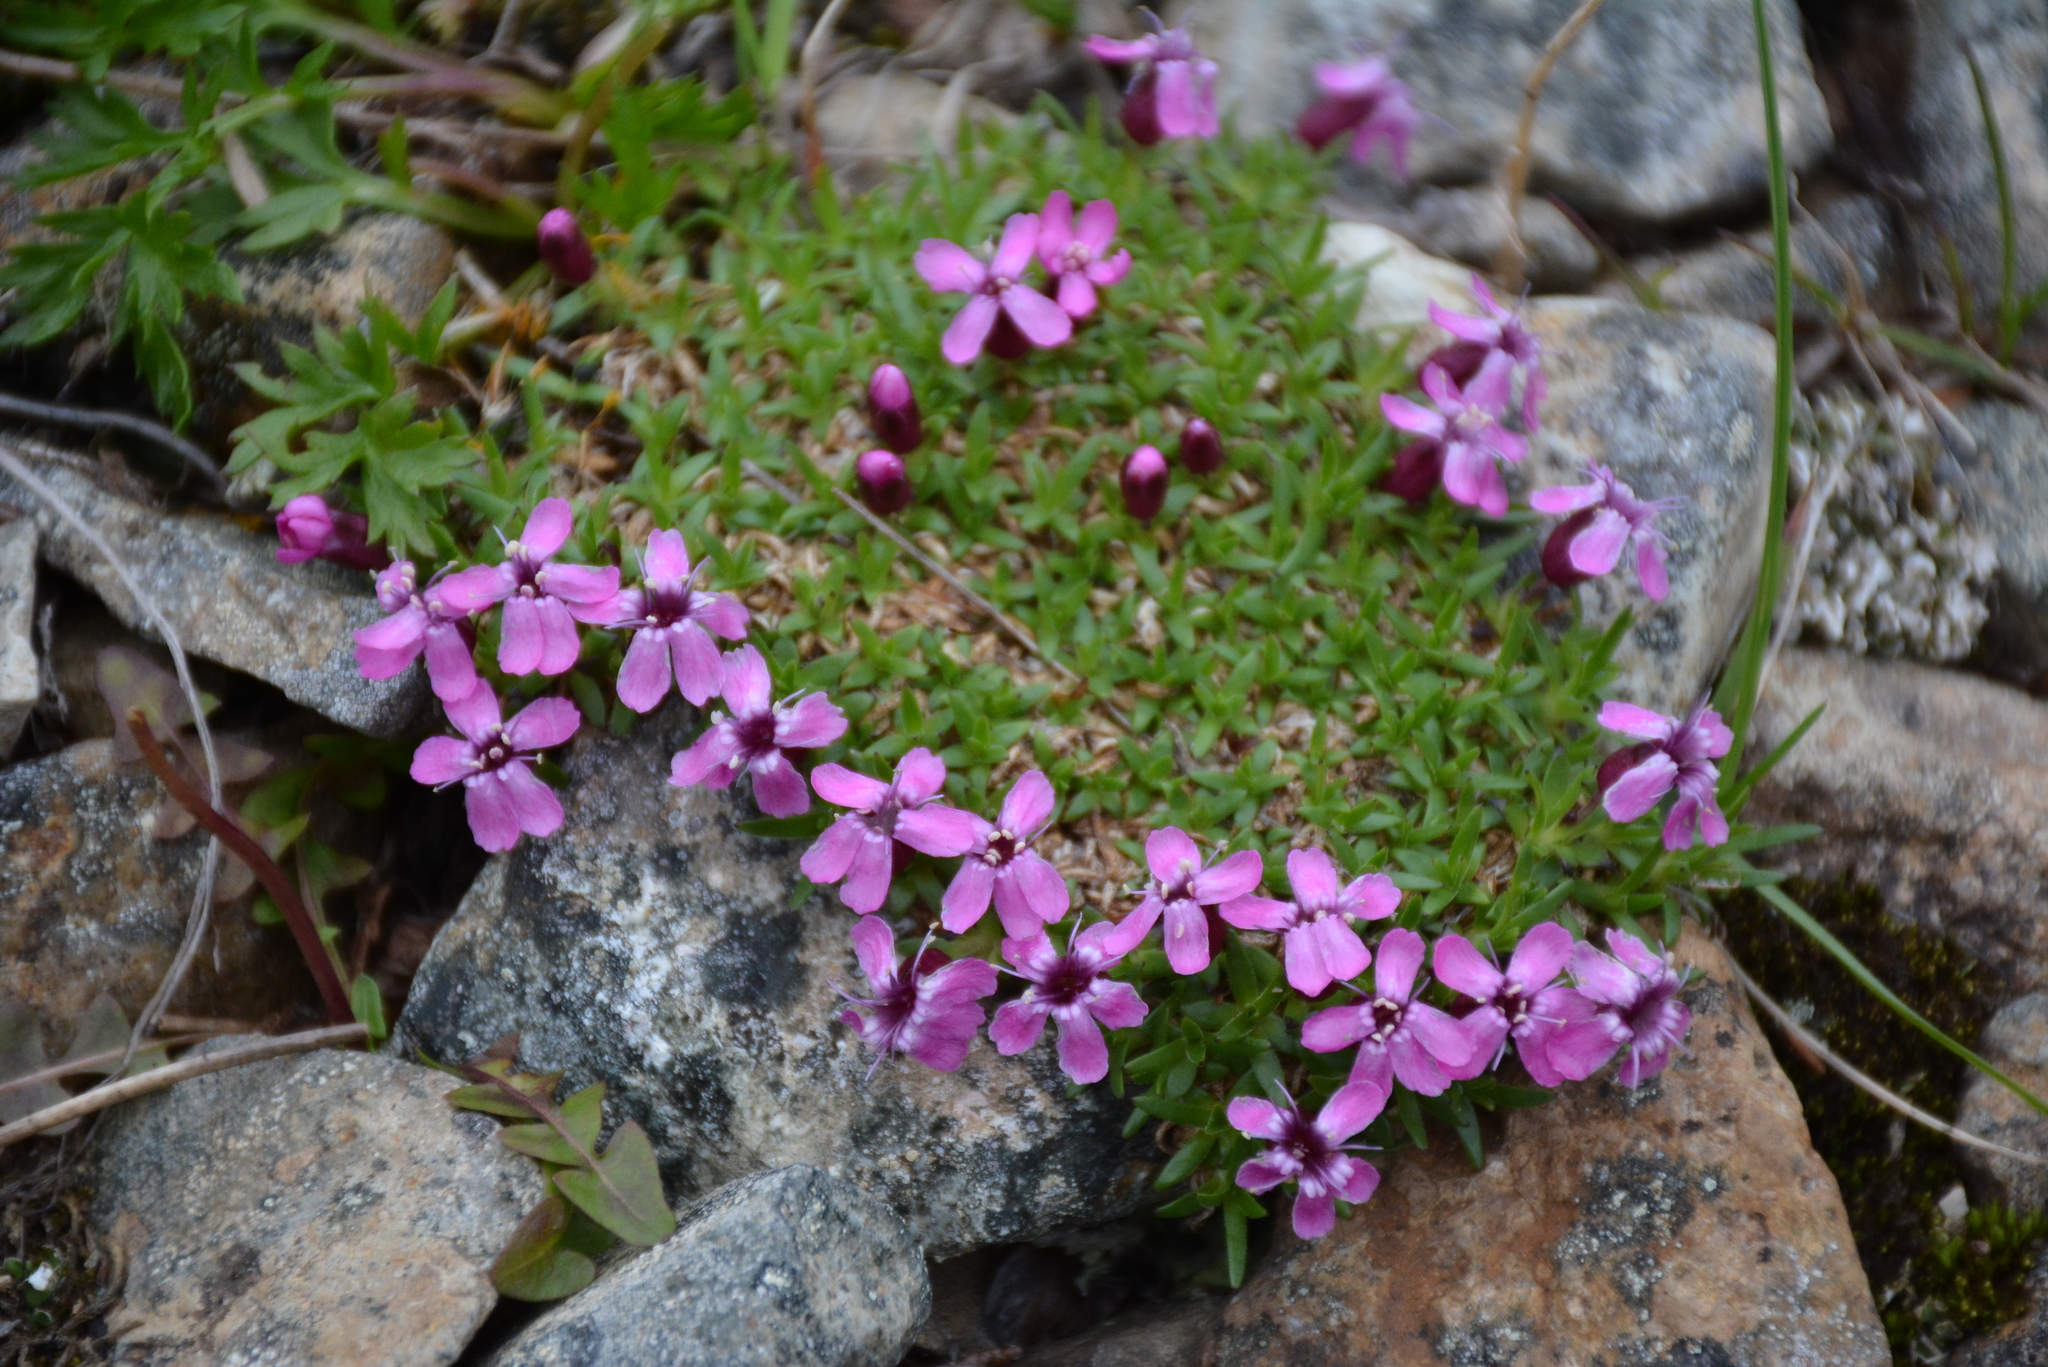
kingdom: Plantae
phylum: Tracheophyta
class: Magnoliopsida
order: Caryophyllales
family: Caryophyllaceae
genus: Silene
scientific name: Silene acaulis
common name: Moss campion
